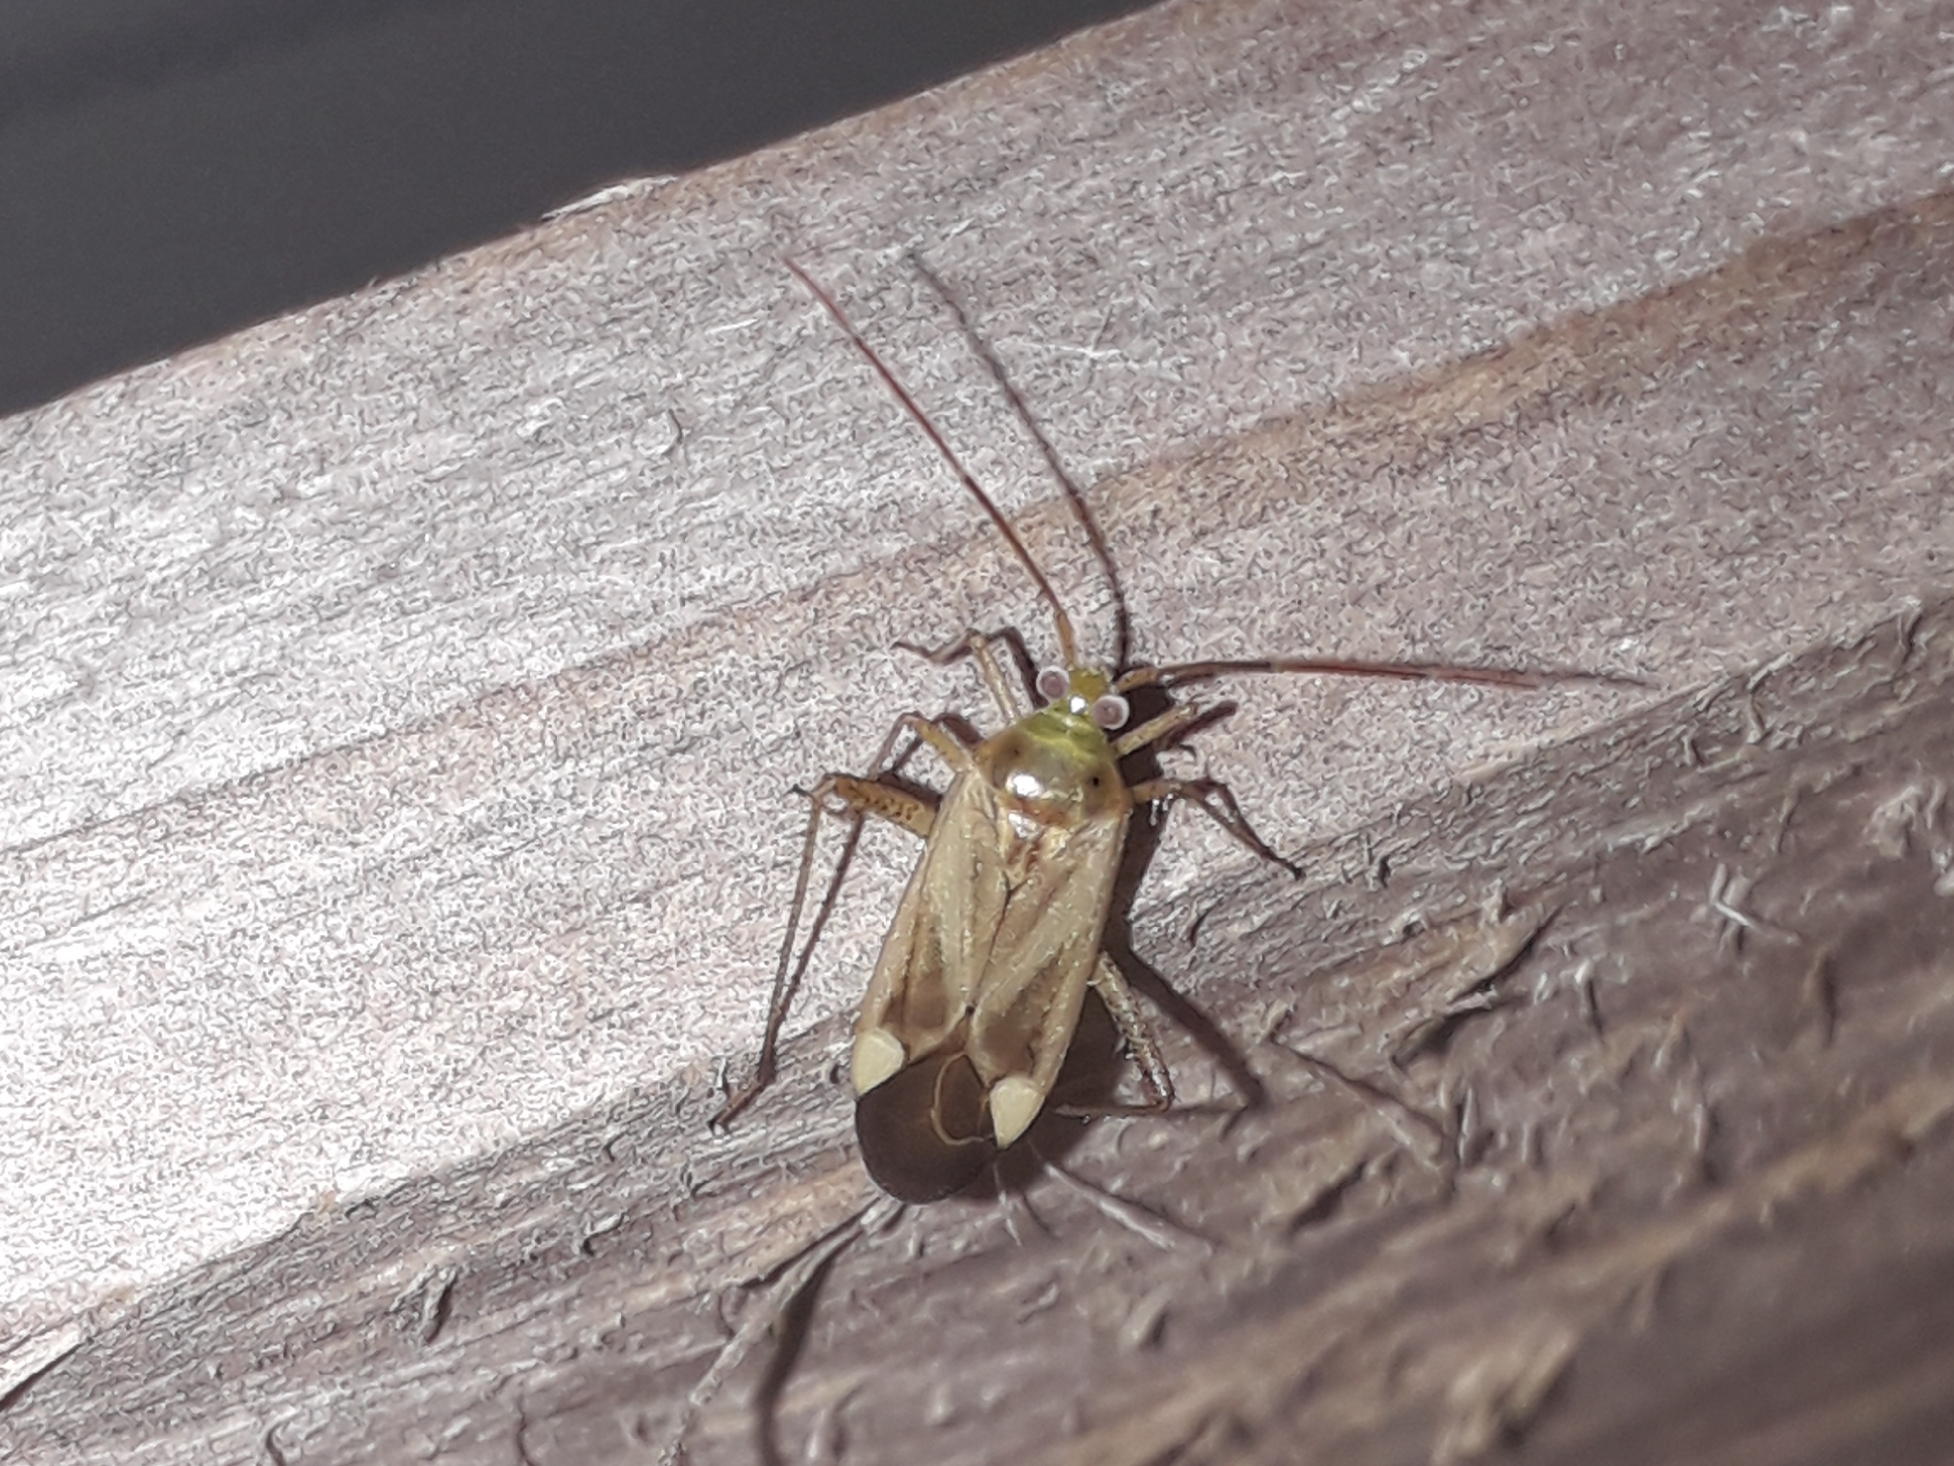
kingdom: Animalia
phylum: Arthropoda
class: Insecta
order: Hemiptera
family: Miridae
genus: Adelphocoris
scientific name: Adelphocoris lineolatus
